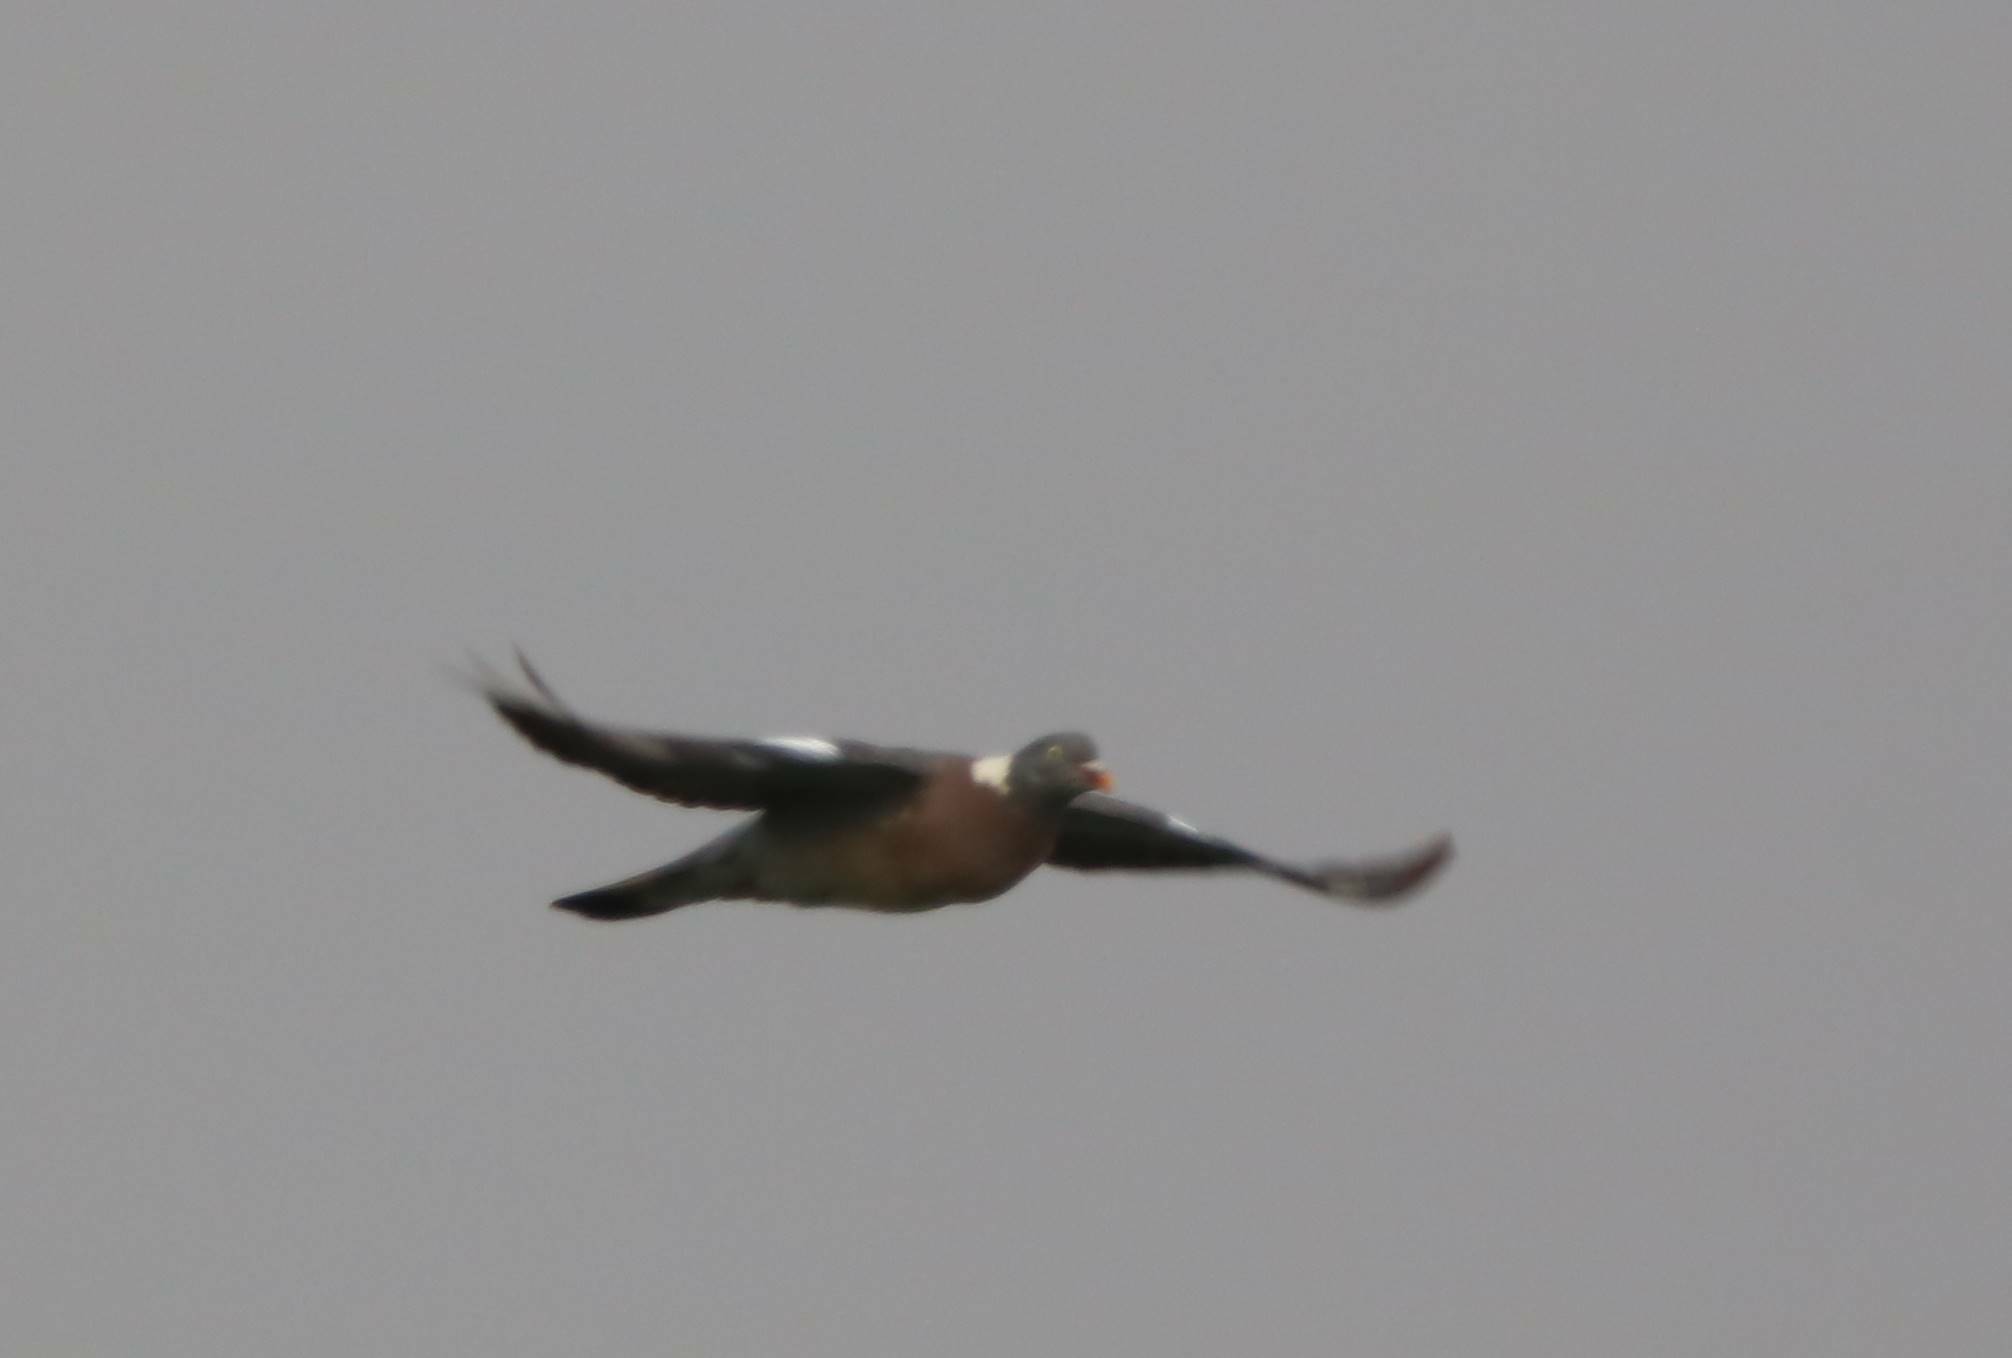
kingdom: Animalia
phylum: Chordata
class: Aves
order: Columbiformes
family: Columbidae
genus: Columba
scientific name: Columba palumbus
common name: Common wood pigeon
